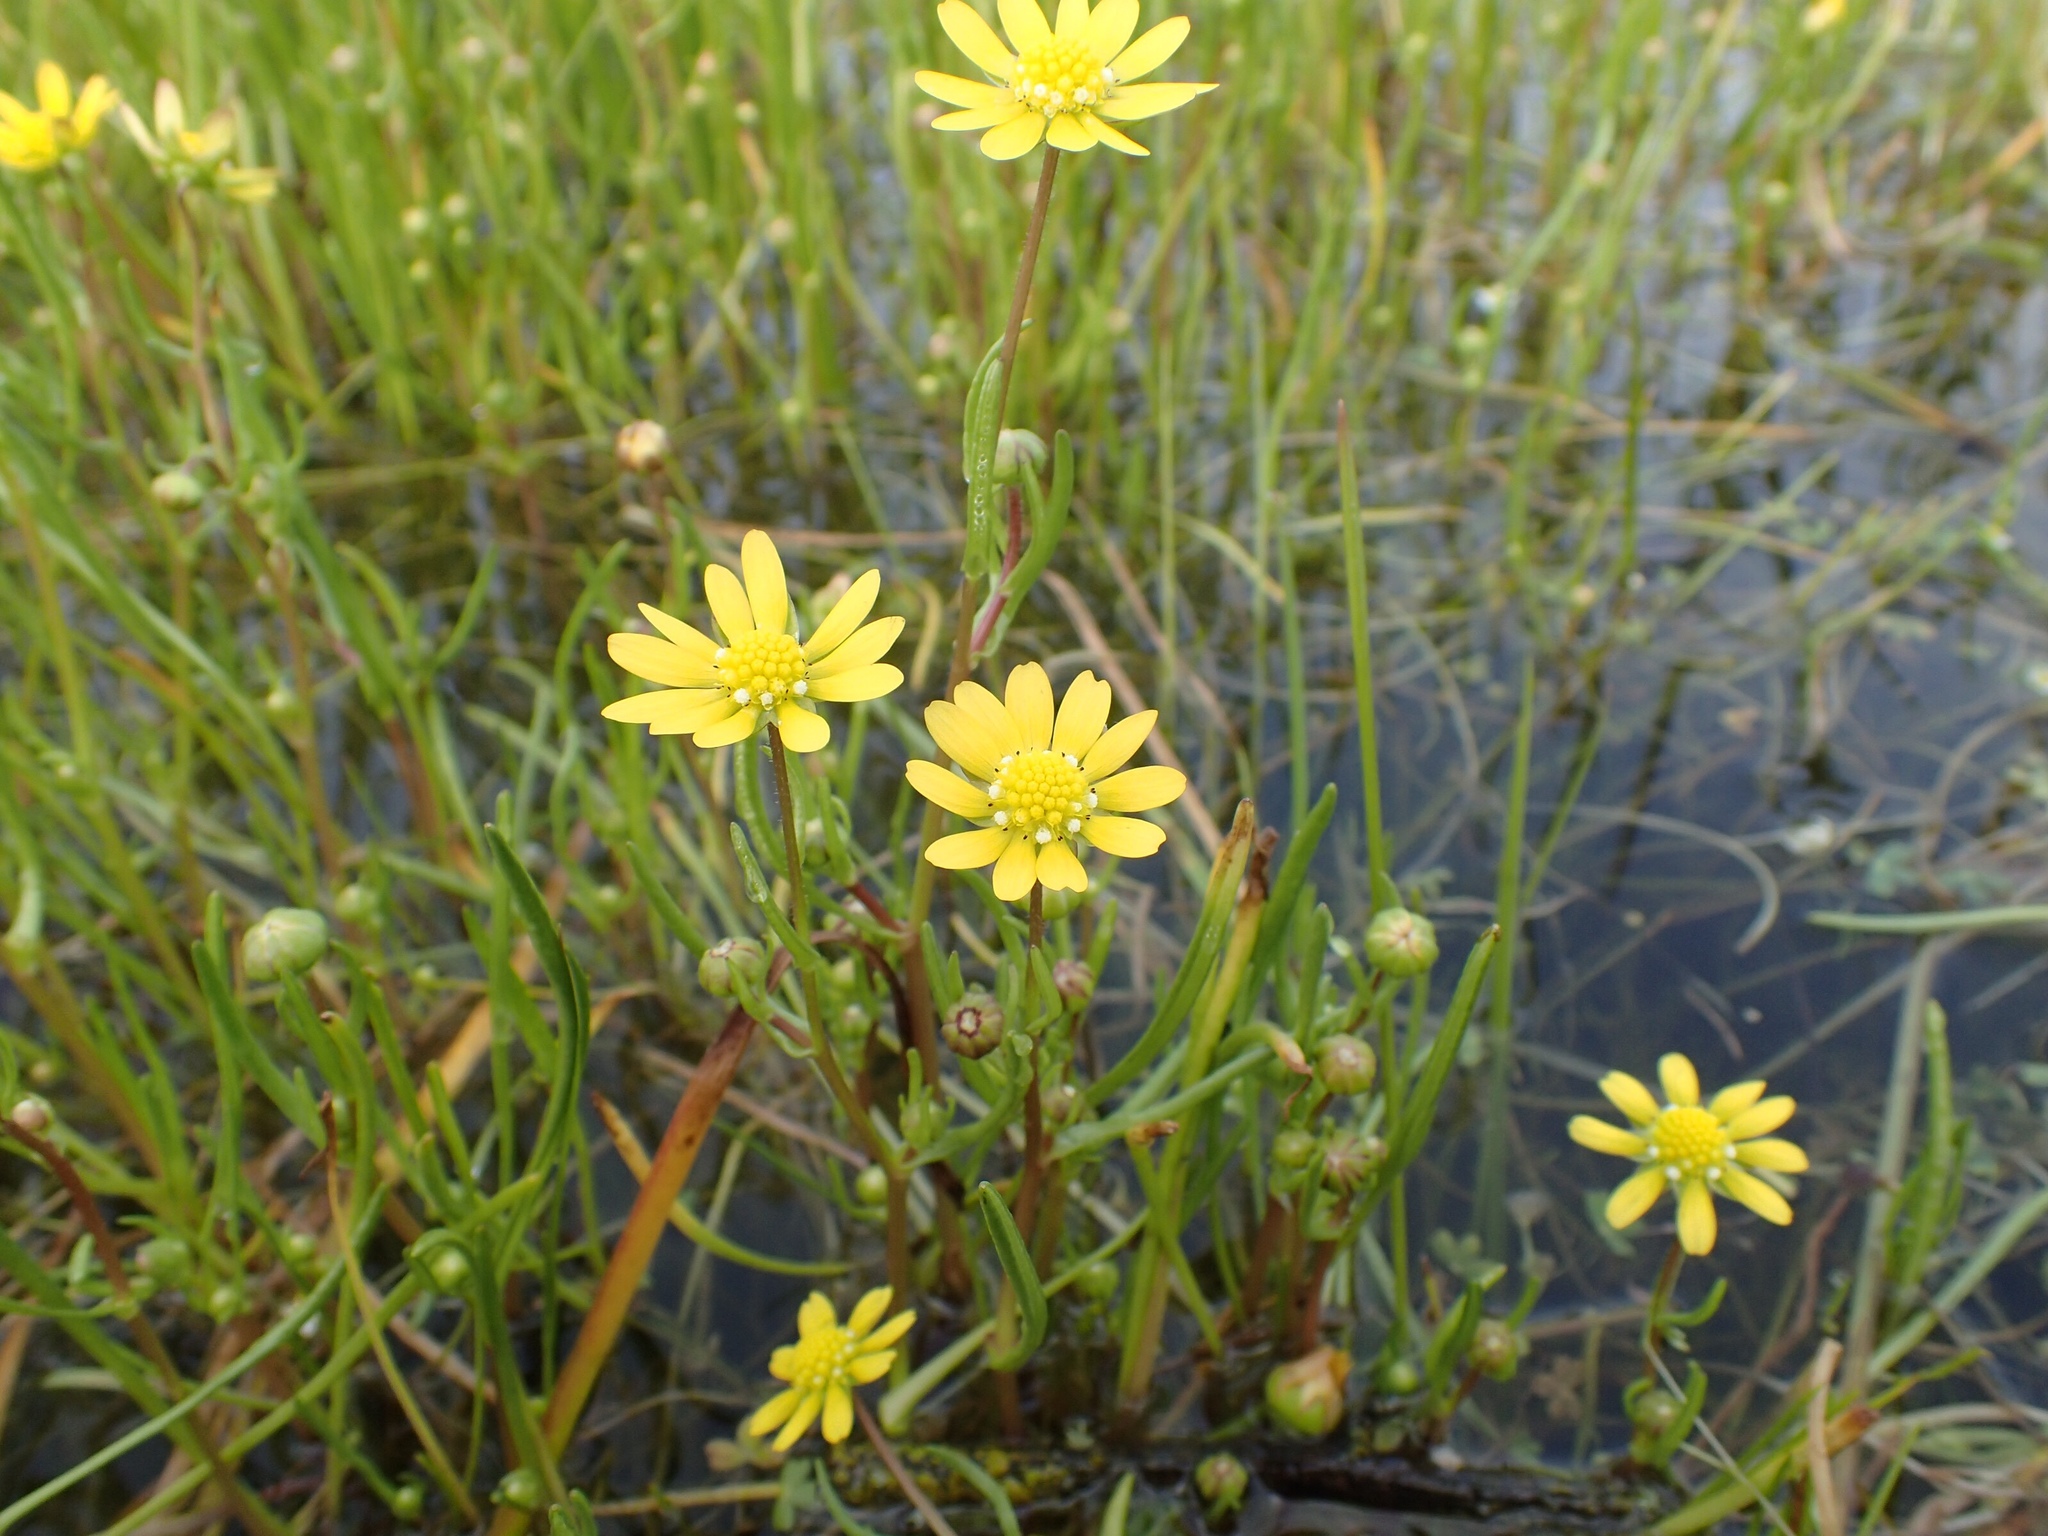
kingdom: Plantae
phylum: Tracheophyta
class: Magnoliopsida
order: Asterales
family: Asteraceae
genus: Blennosperma
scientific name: Blennosperma bakeri
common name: Sonoma sunshine
